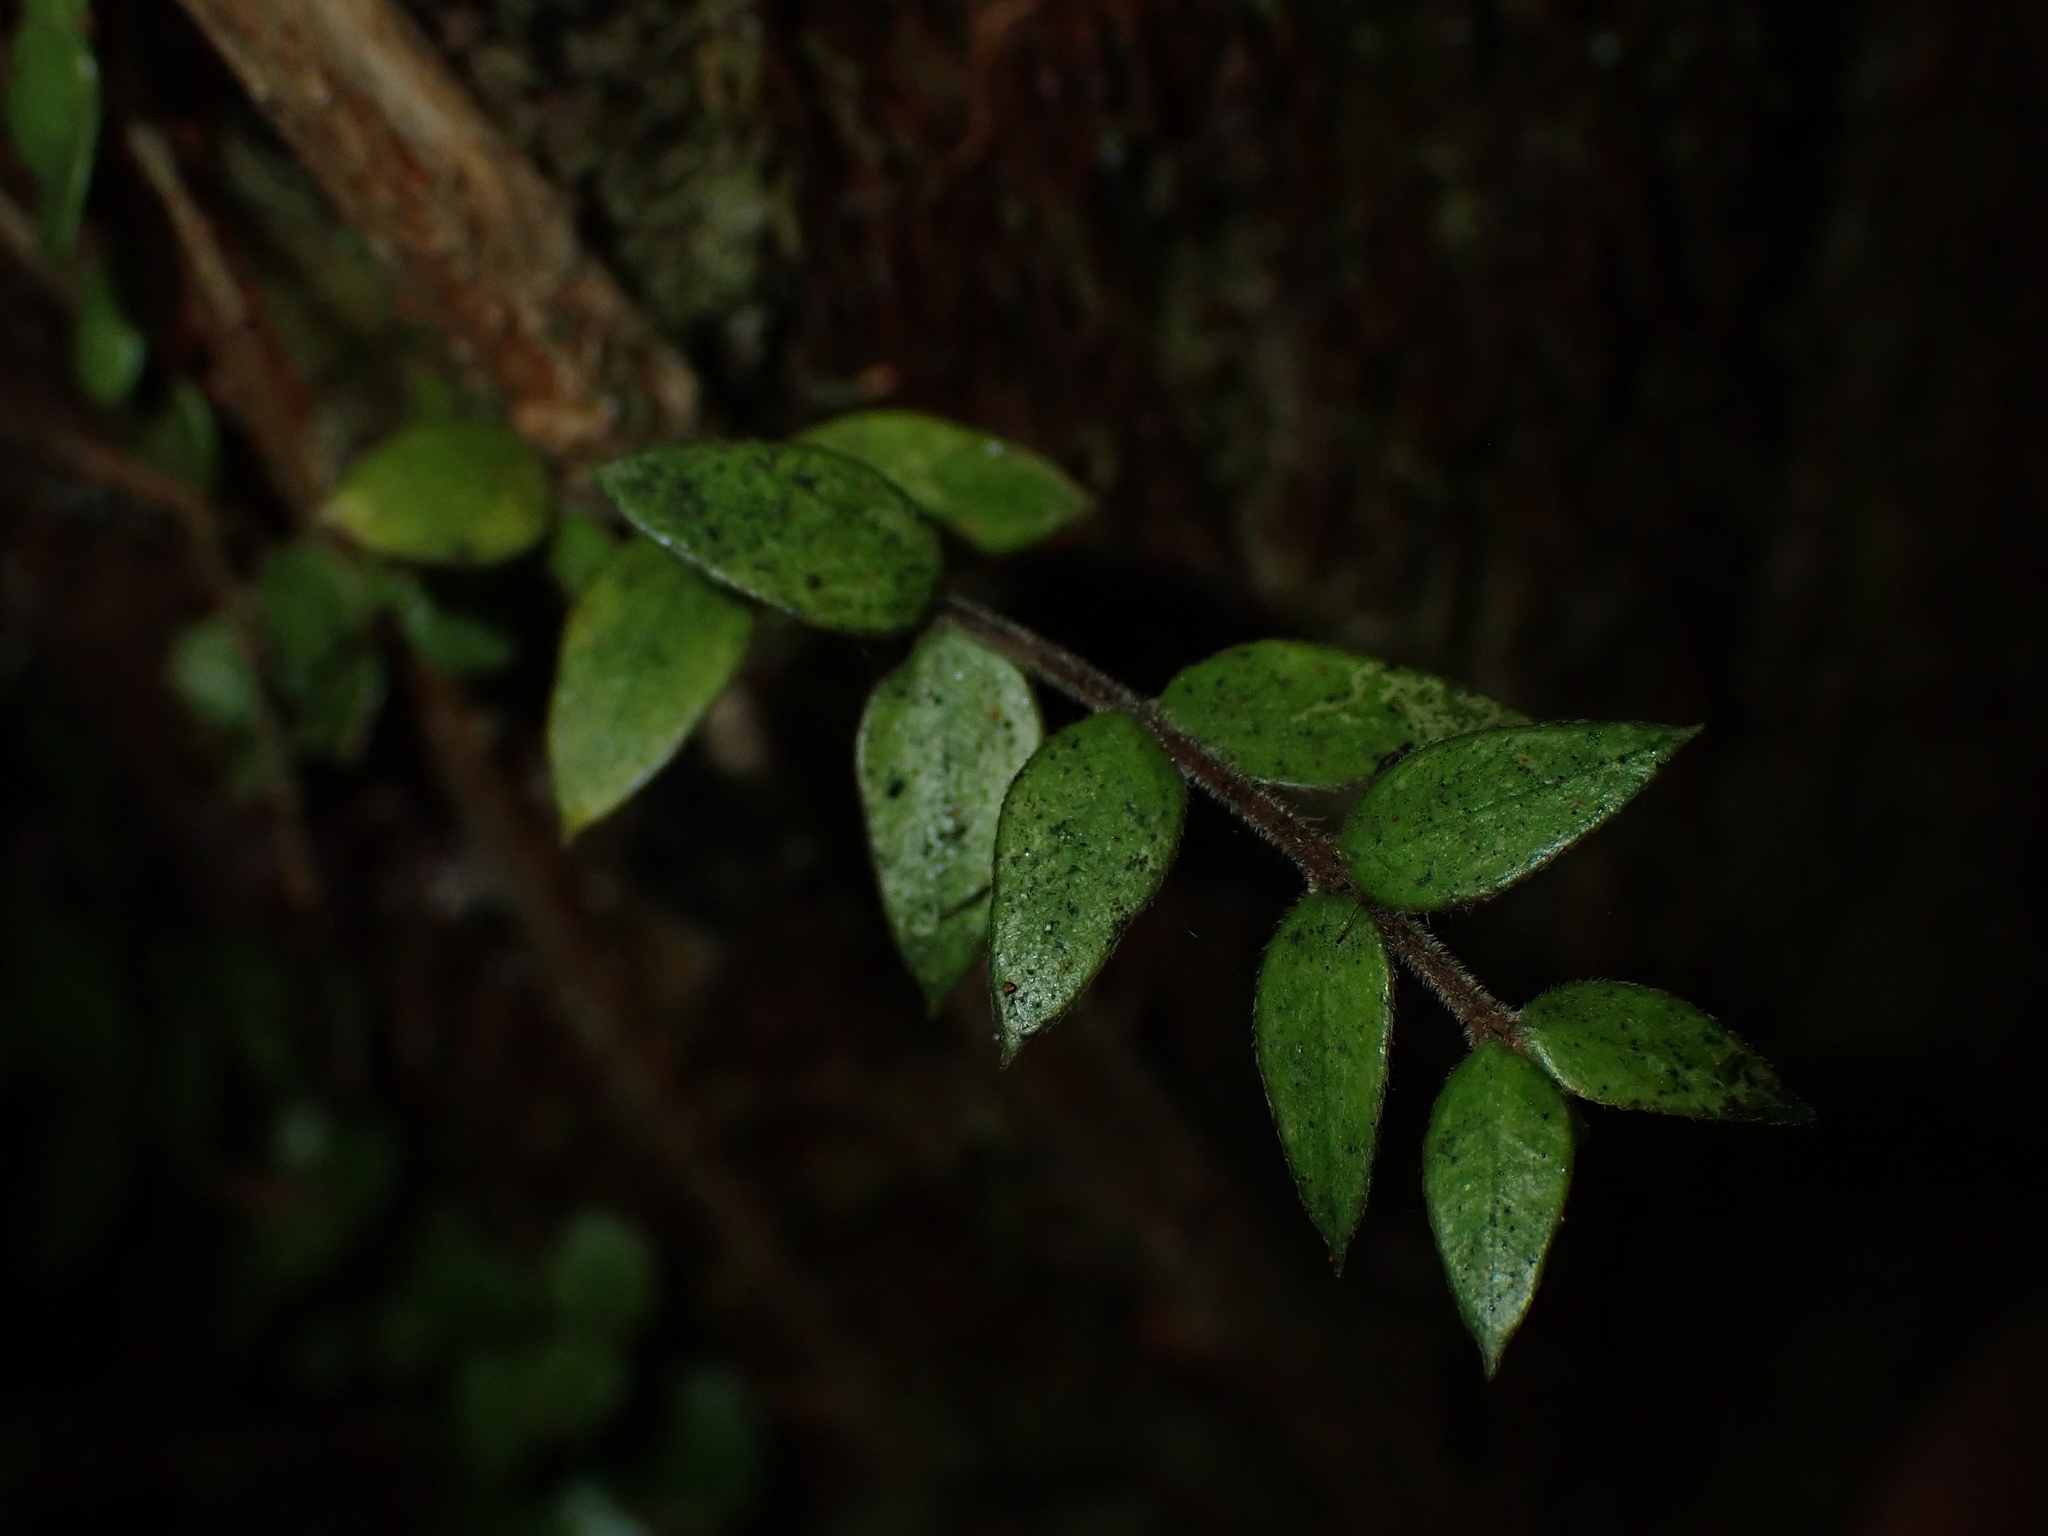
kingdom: Plantae
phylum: Tracheophyta
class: Magnoliopsida
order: Myrtales
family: Myrtaceae
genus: Metrosideros
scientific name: Metrosideros colensoi
